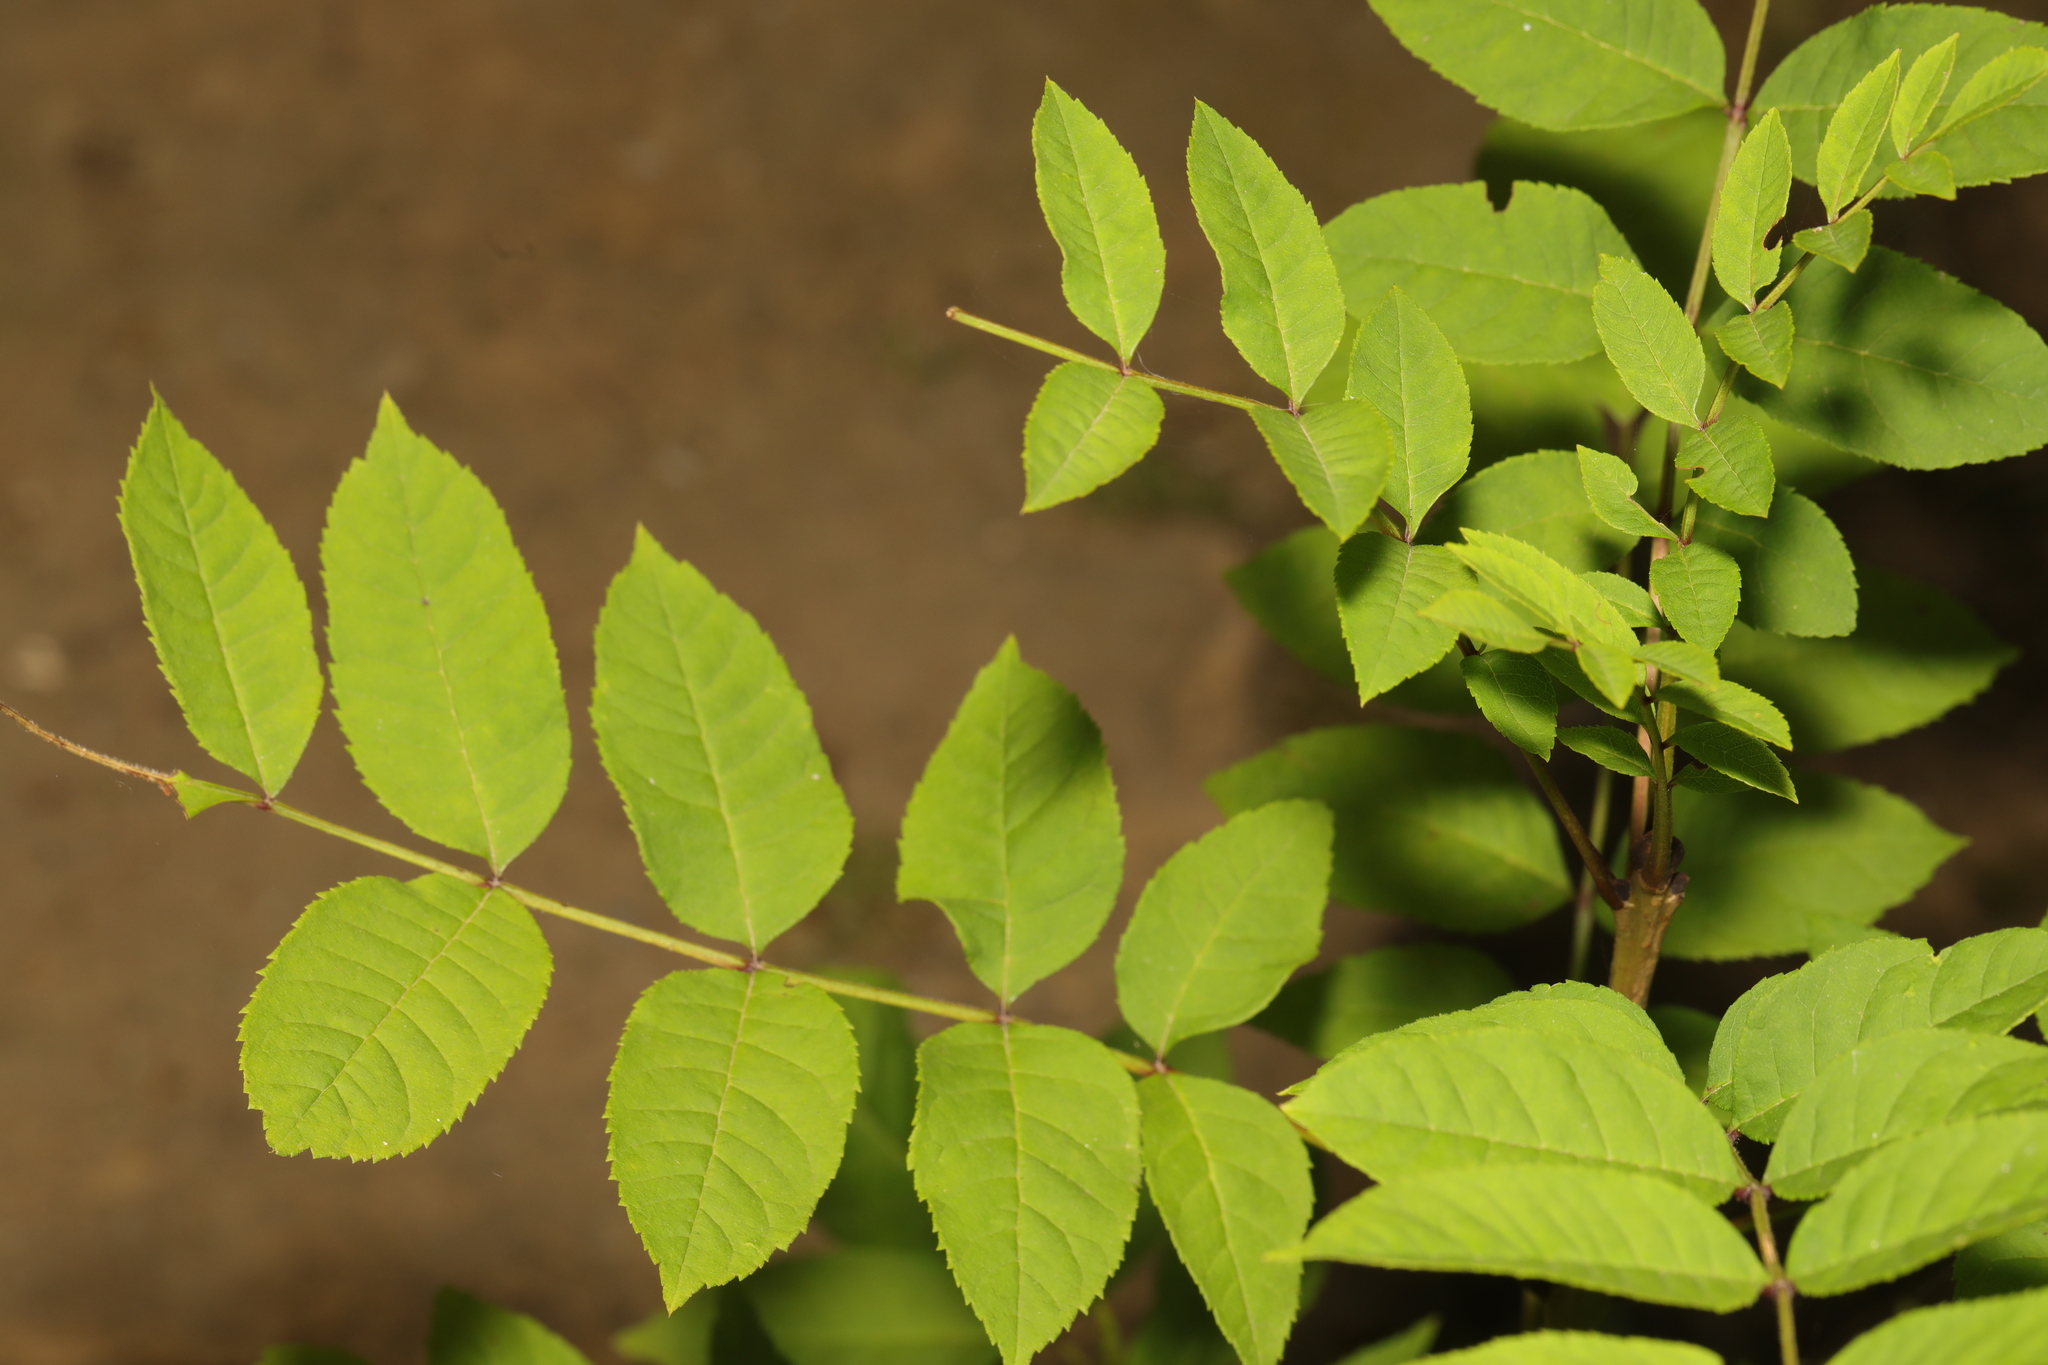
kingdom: Plantae
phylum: Tracheophyta
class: Magnoliopsida
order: Lamiales
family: Oleaceae
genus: Fraxinus
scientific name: Fraxinus excelsior
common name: European ash
